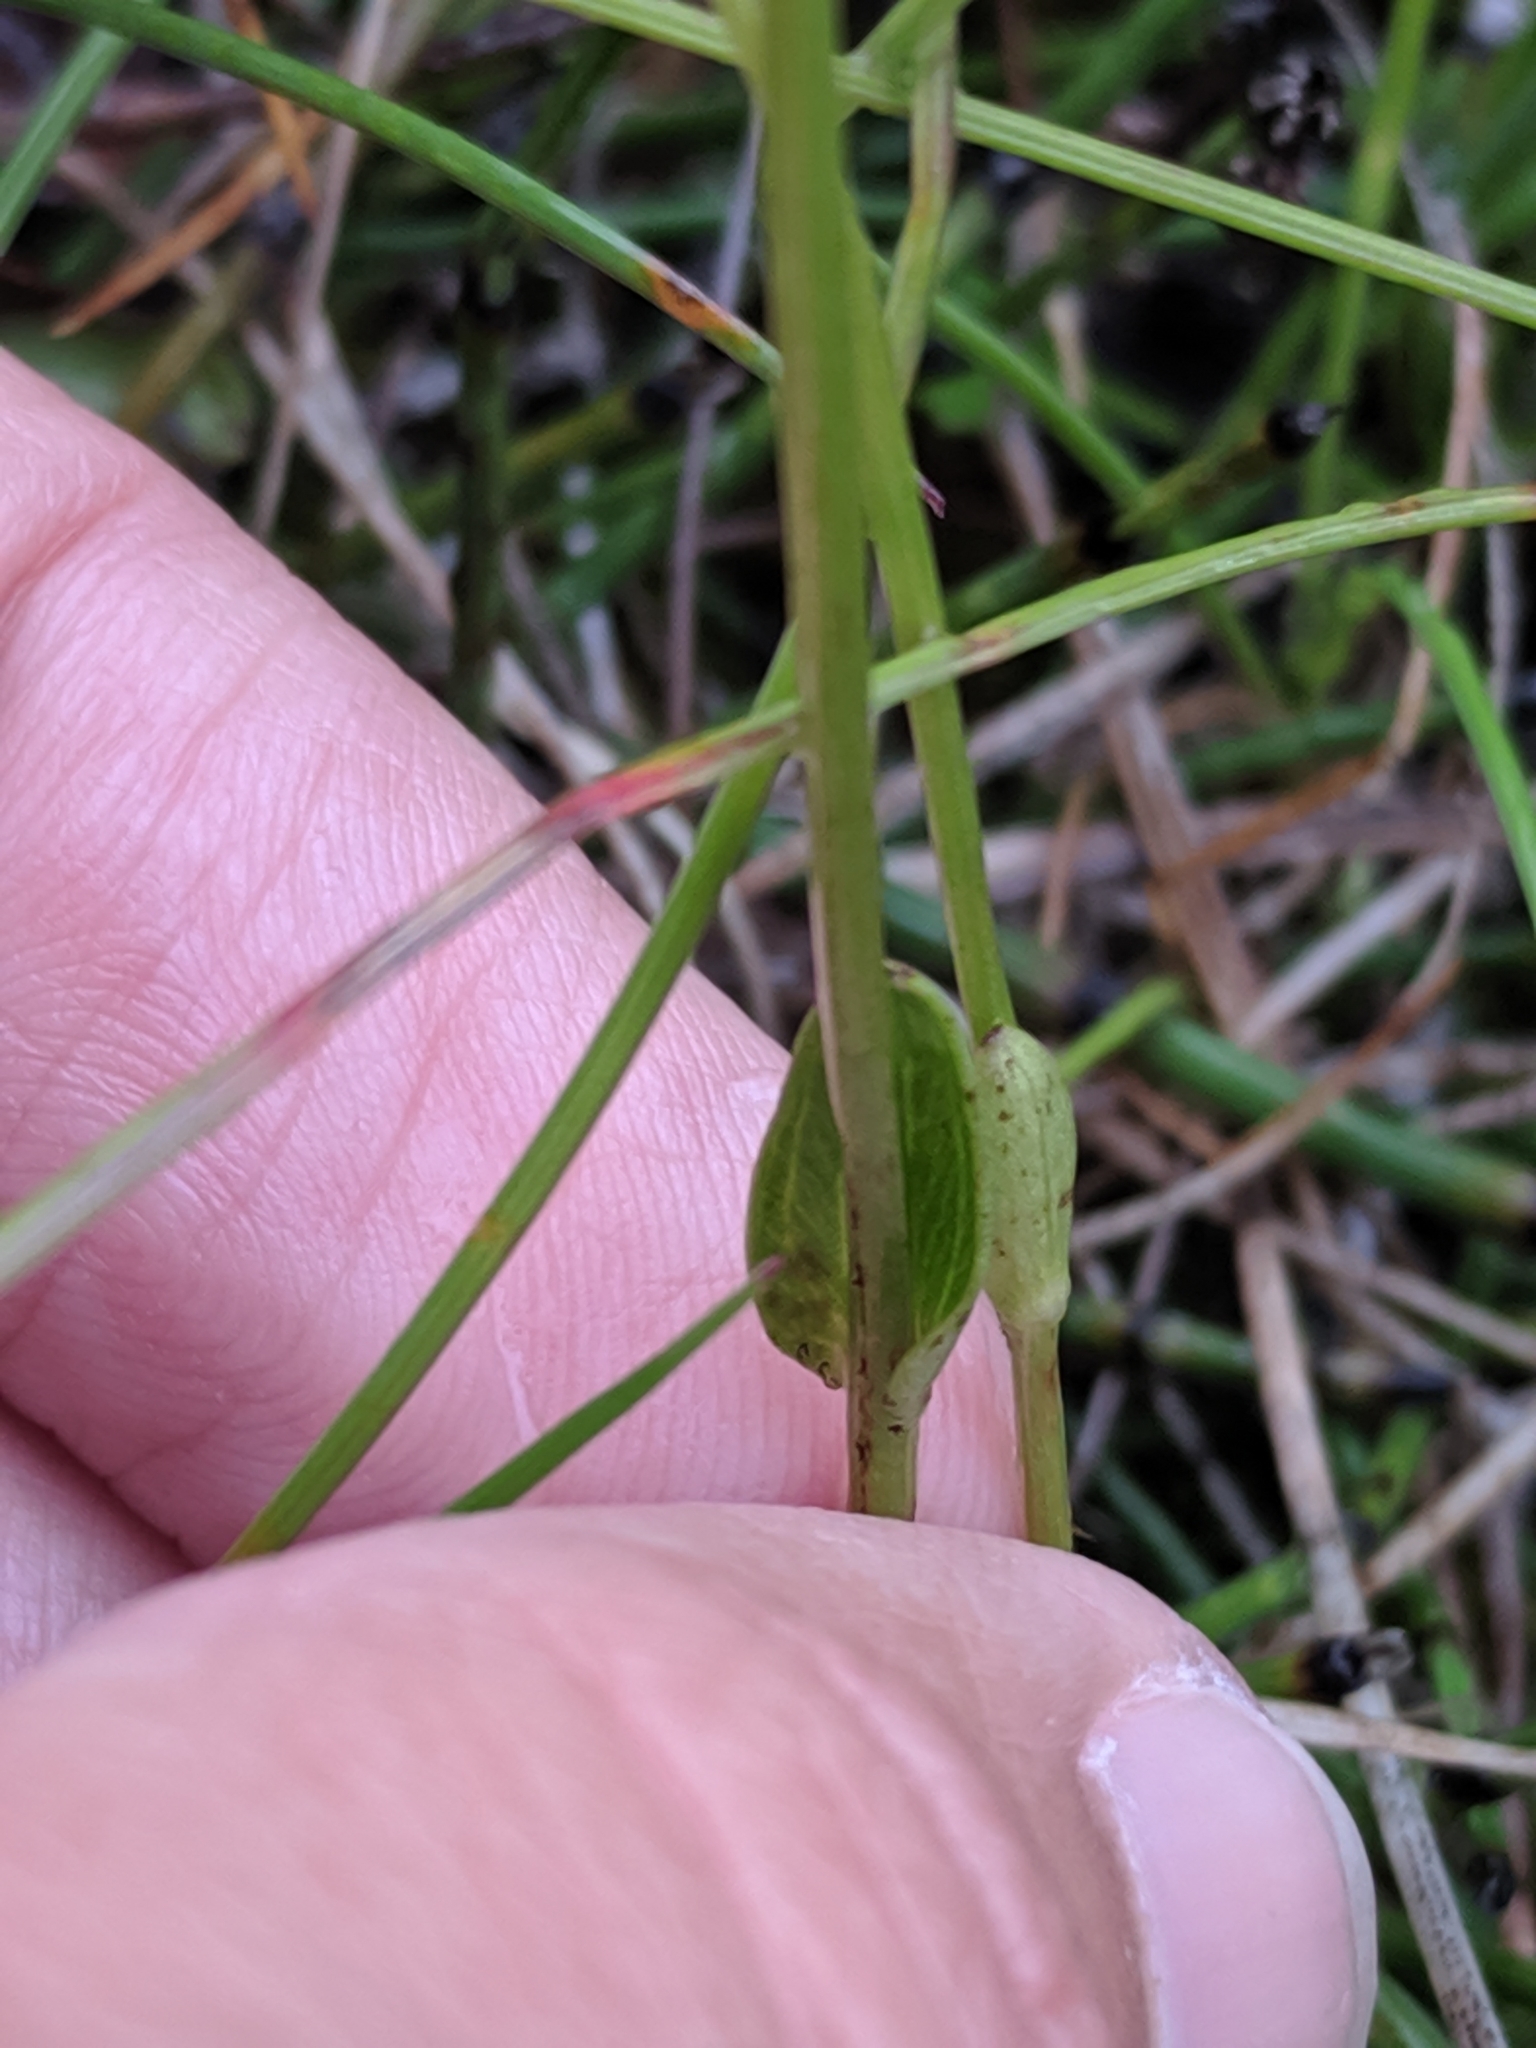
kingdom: Plantae
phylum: Tracheophyta
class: Magnoliopsida
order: Celastrales
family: Parnassiaceae
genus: Parnassia
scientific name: Parnassia palustris
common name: Grass-of-parnassus
